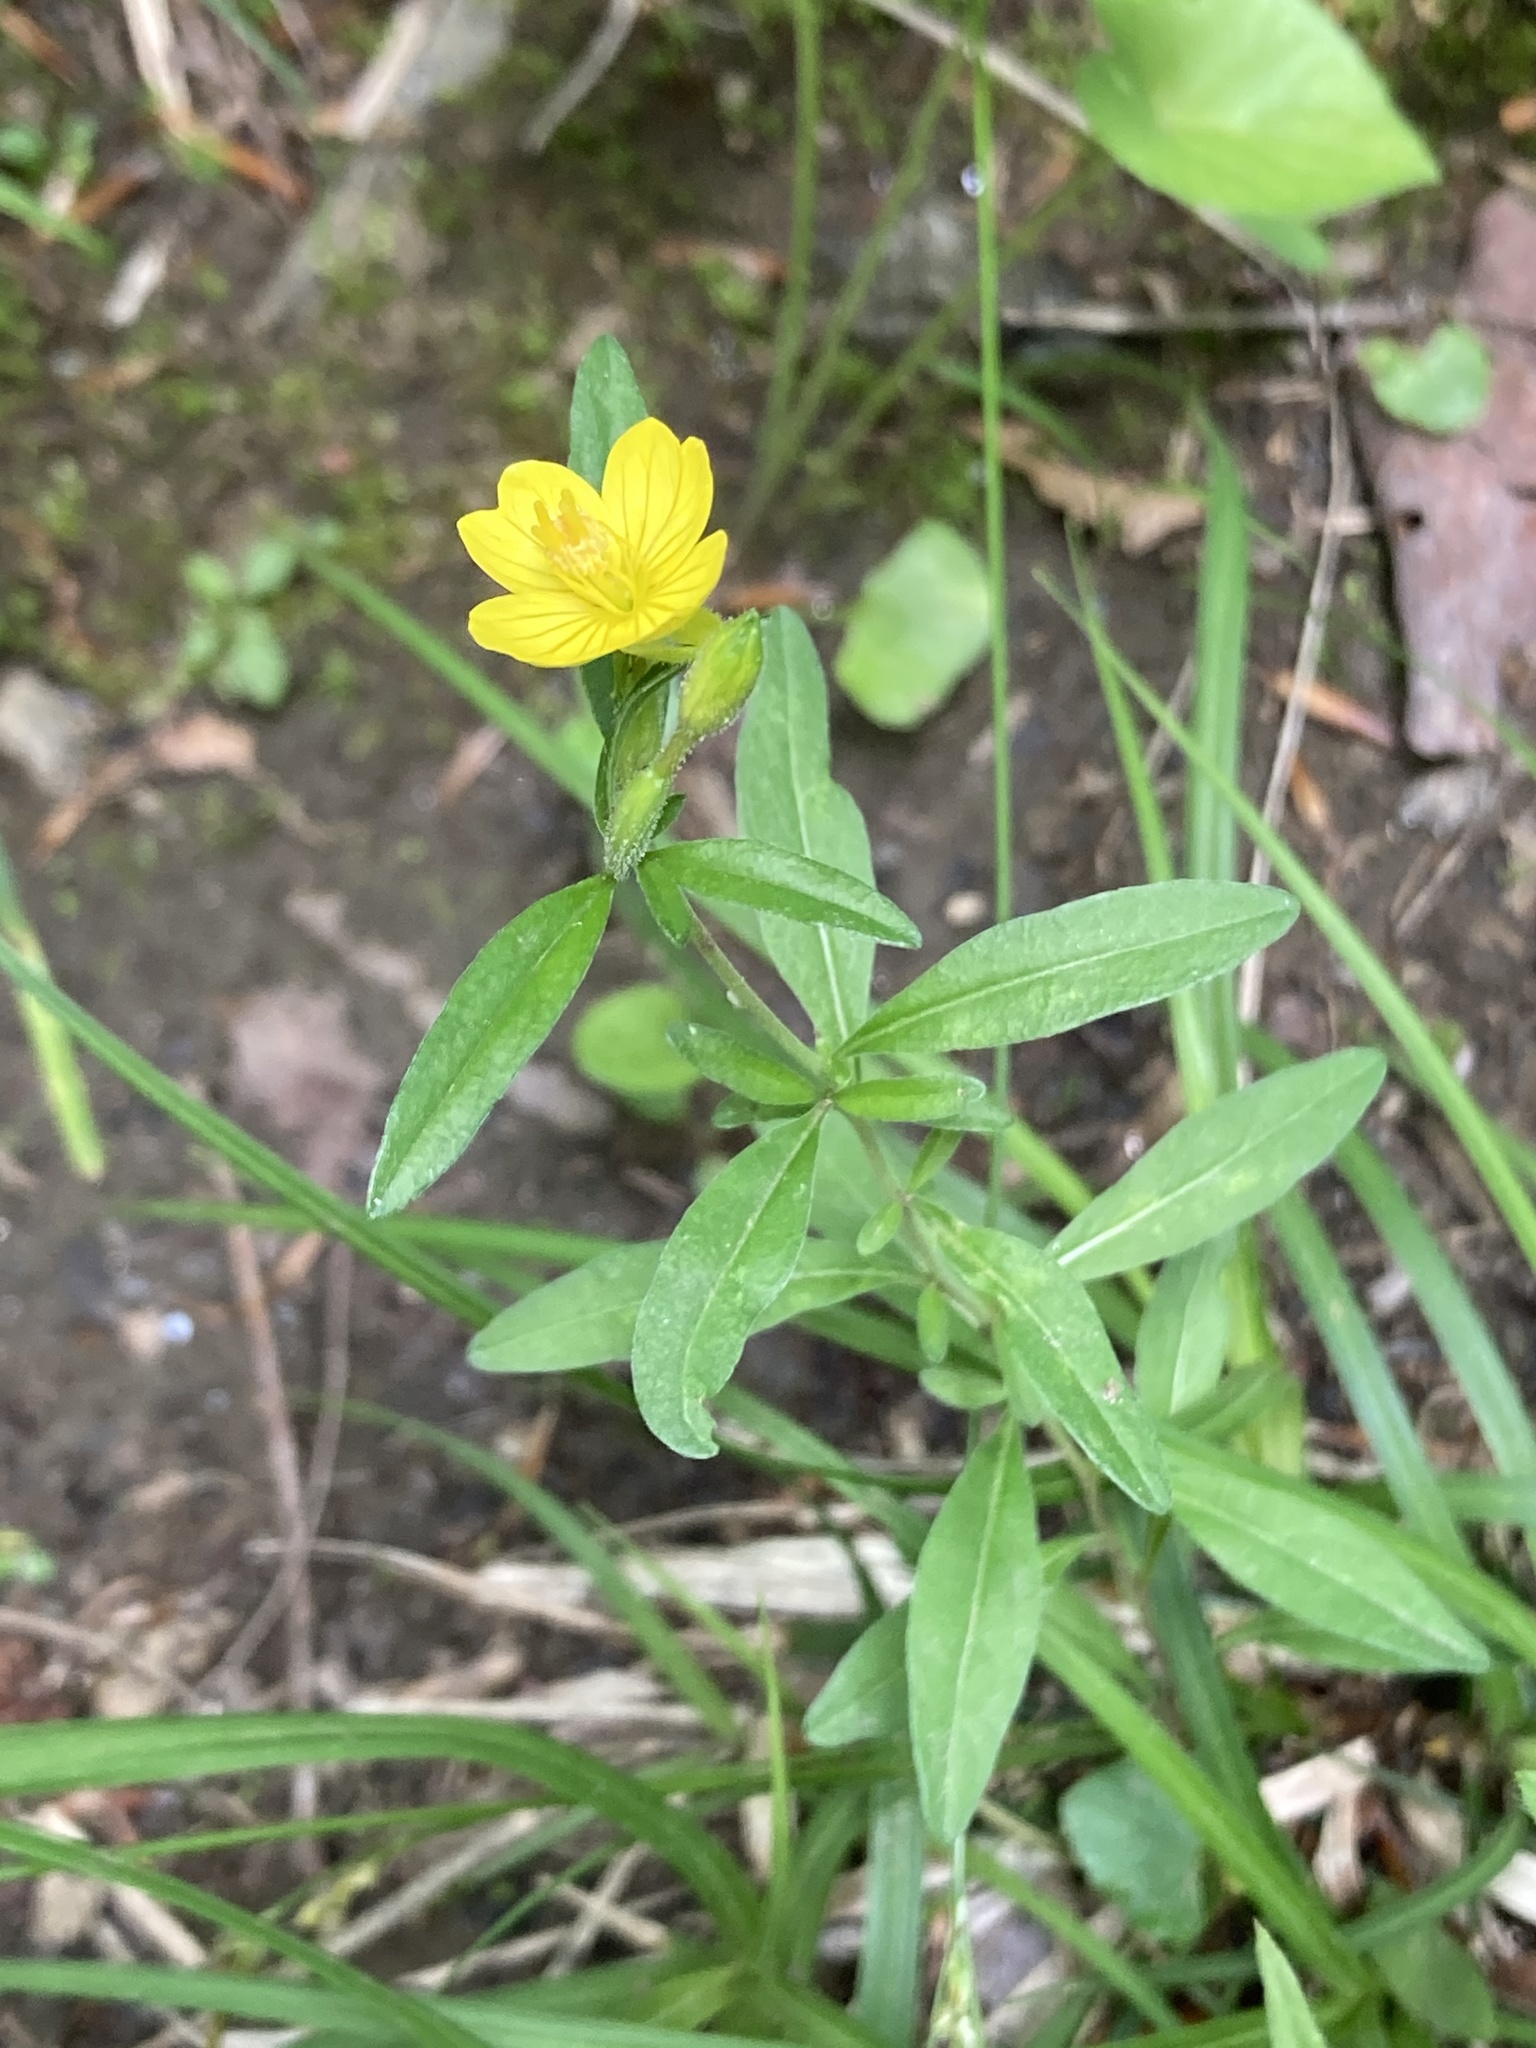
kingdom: Plantae
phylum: Tracheophyta
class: Magnoliopsida
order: Myrtales
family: Onagraceae
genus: Oenothera
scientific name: Oenothera perennis
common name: Small sundrops
